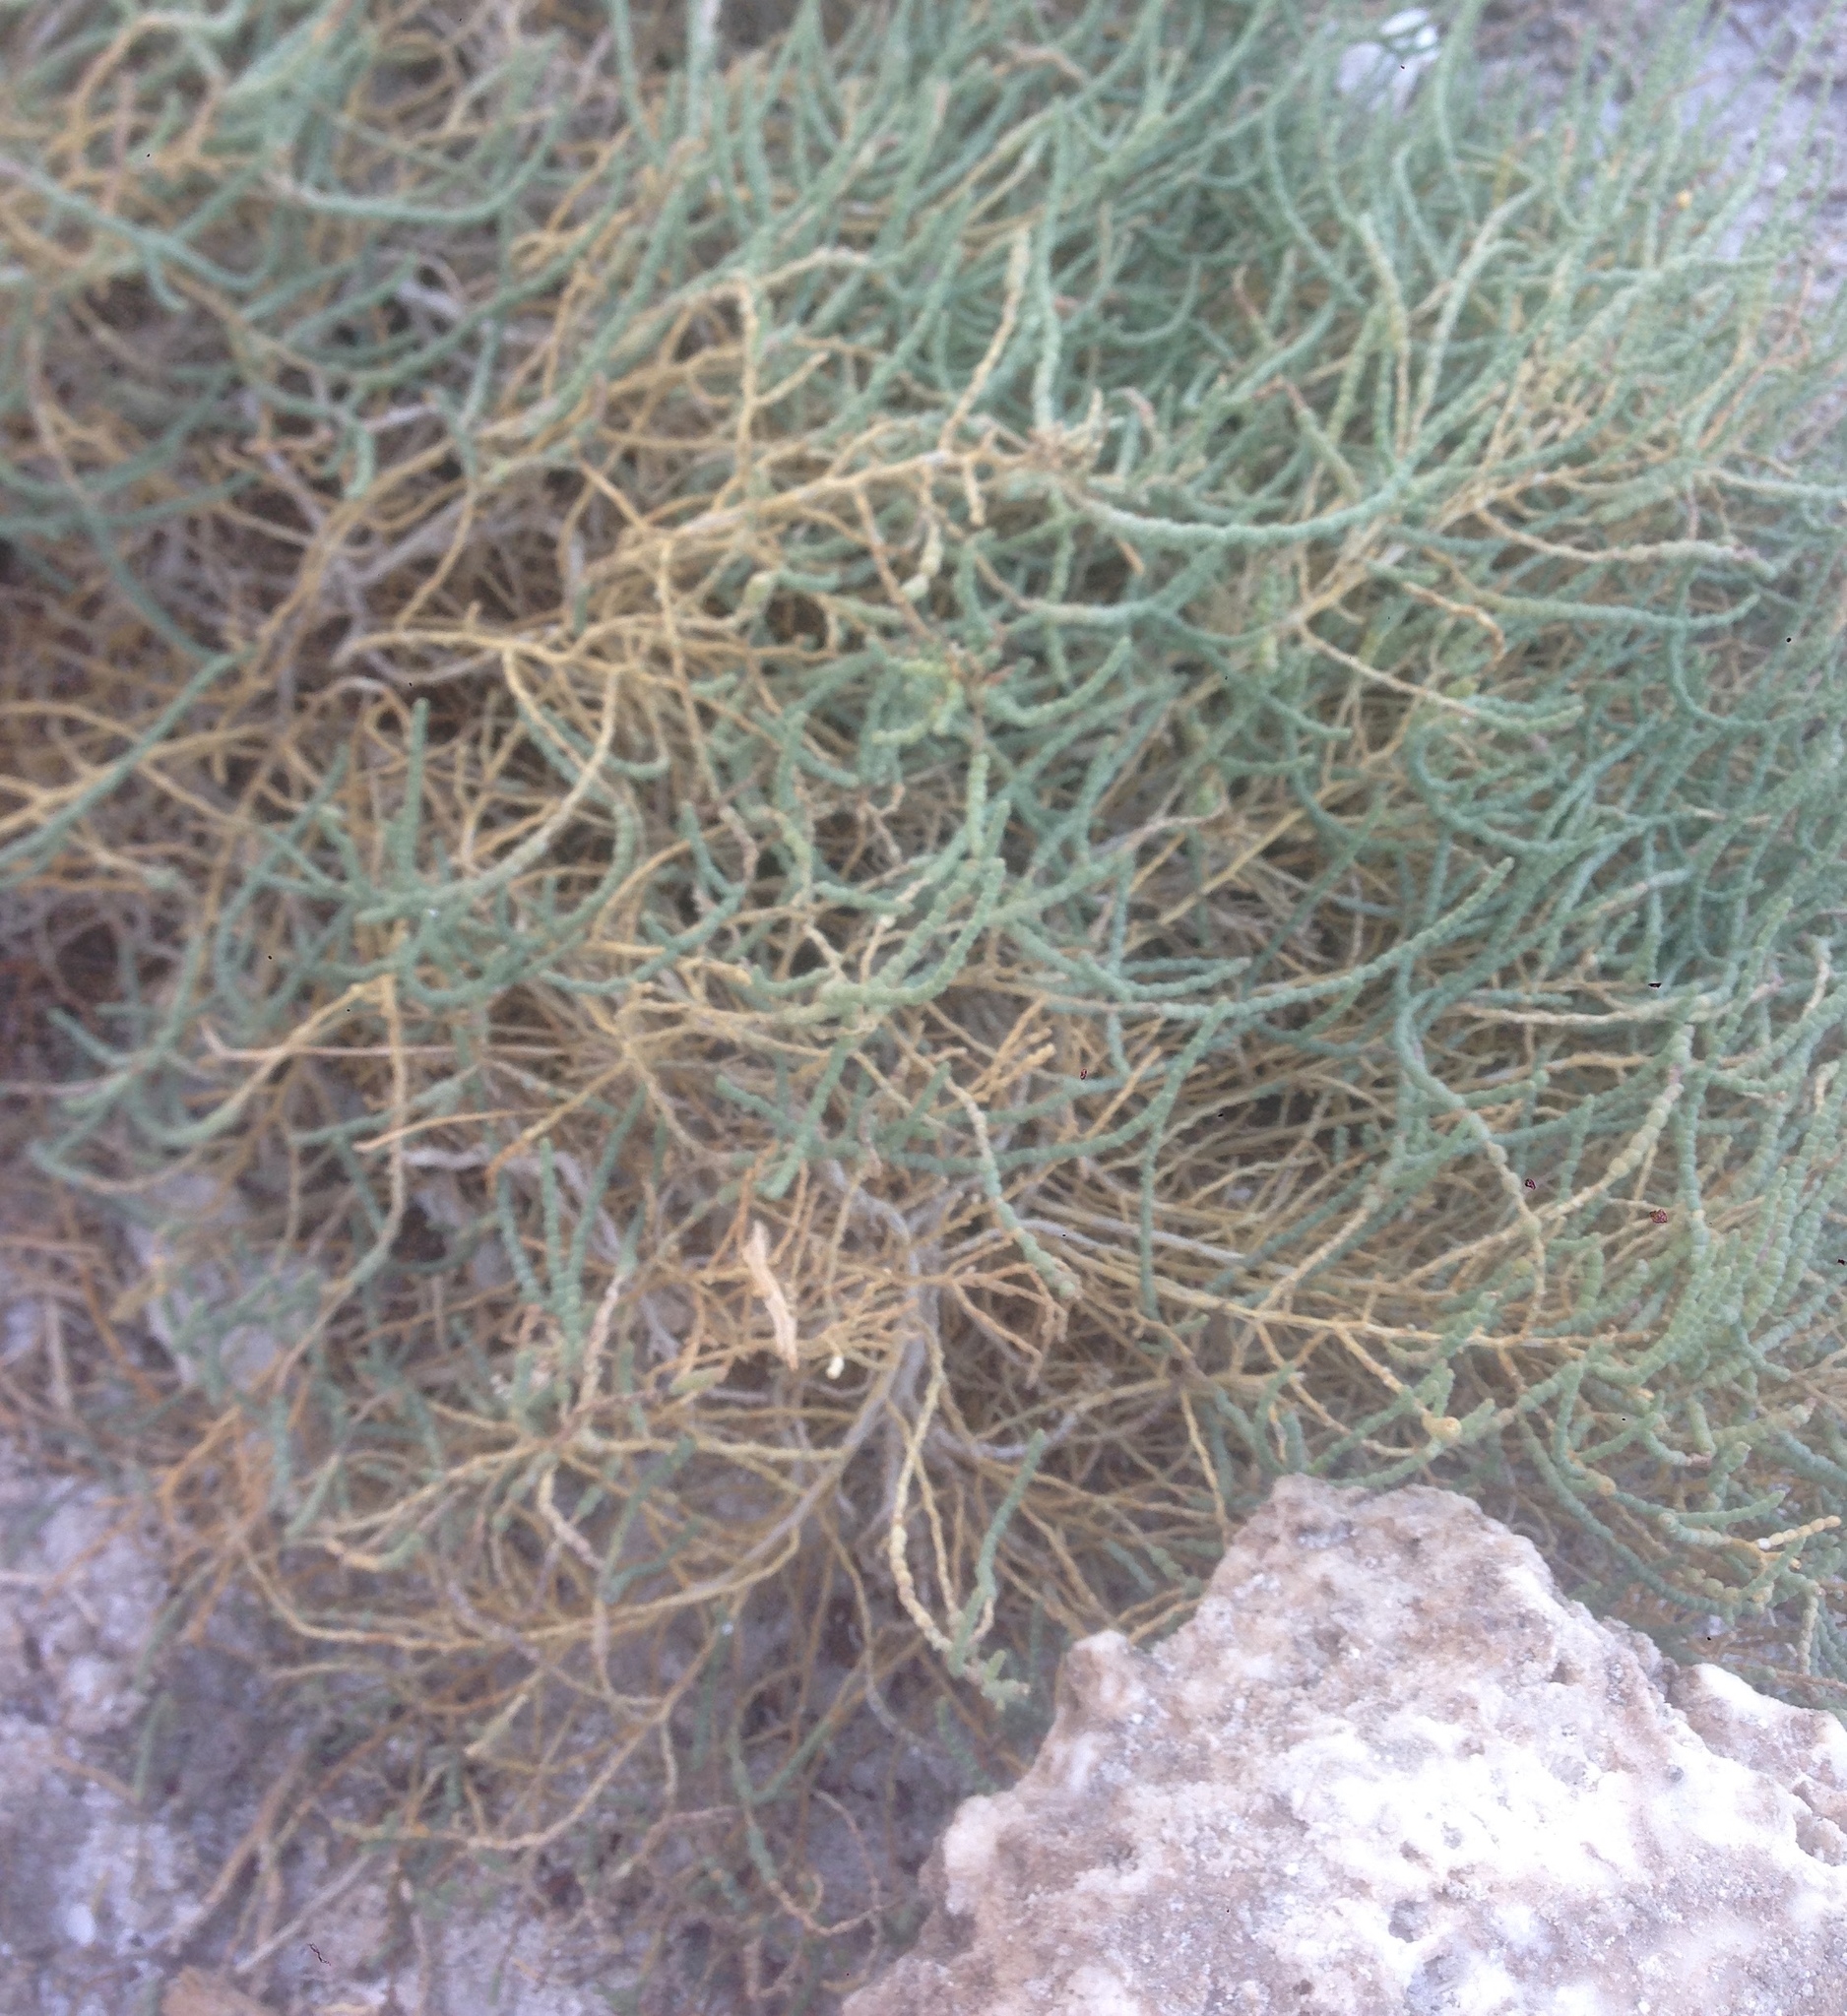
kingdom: Plantae
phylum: Tracheophyta
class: Magnoliopsida
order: Caryophyllales
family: Amaranthaceae
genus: Allenrolfea
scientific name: Allenrolfea occidentalis
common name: Iodine-bush
